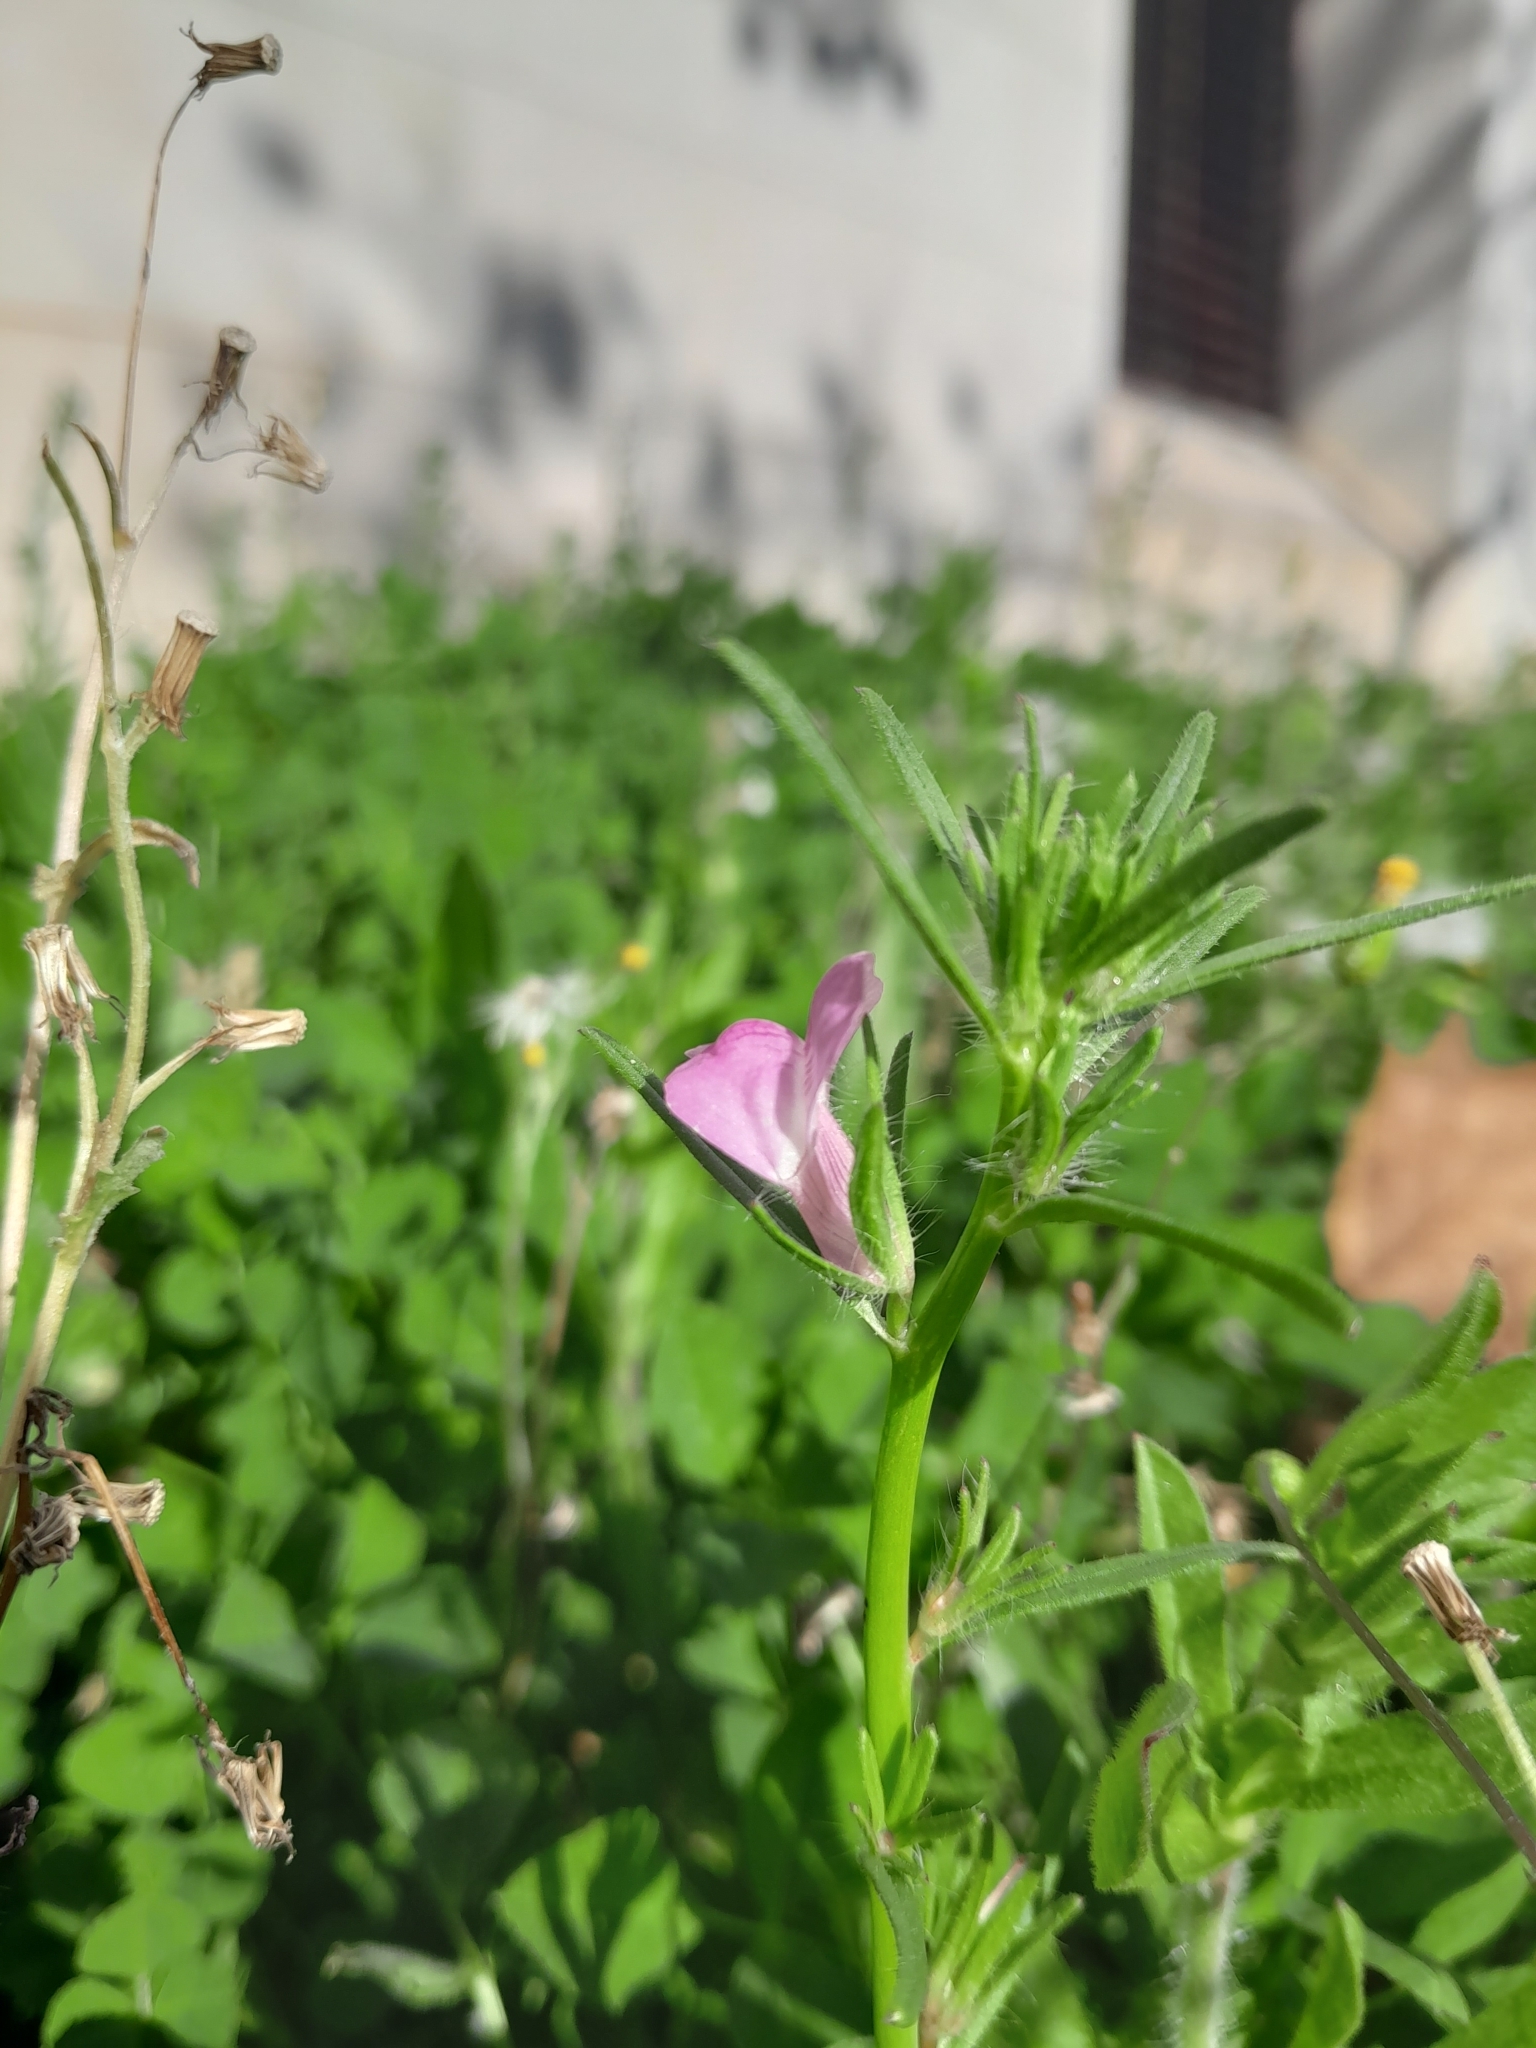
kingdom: Plantae
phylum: Tracheophyta
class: Magnoliopsida
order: Lamiales
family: Plantaginaceae
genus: Misopates
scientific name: Misopates orontium
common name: Weasel's-snout
